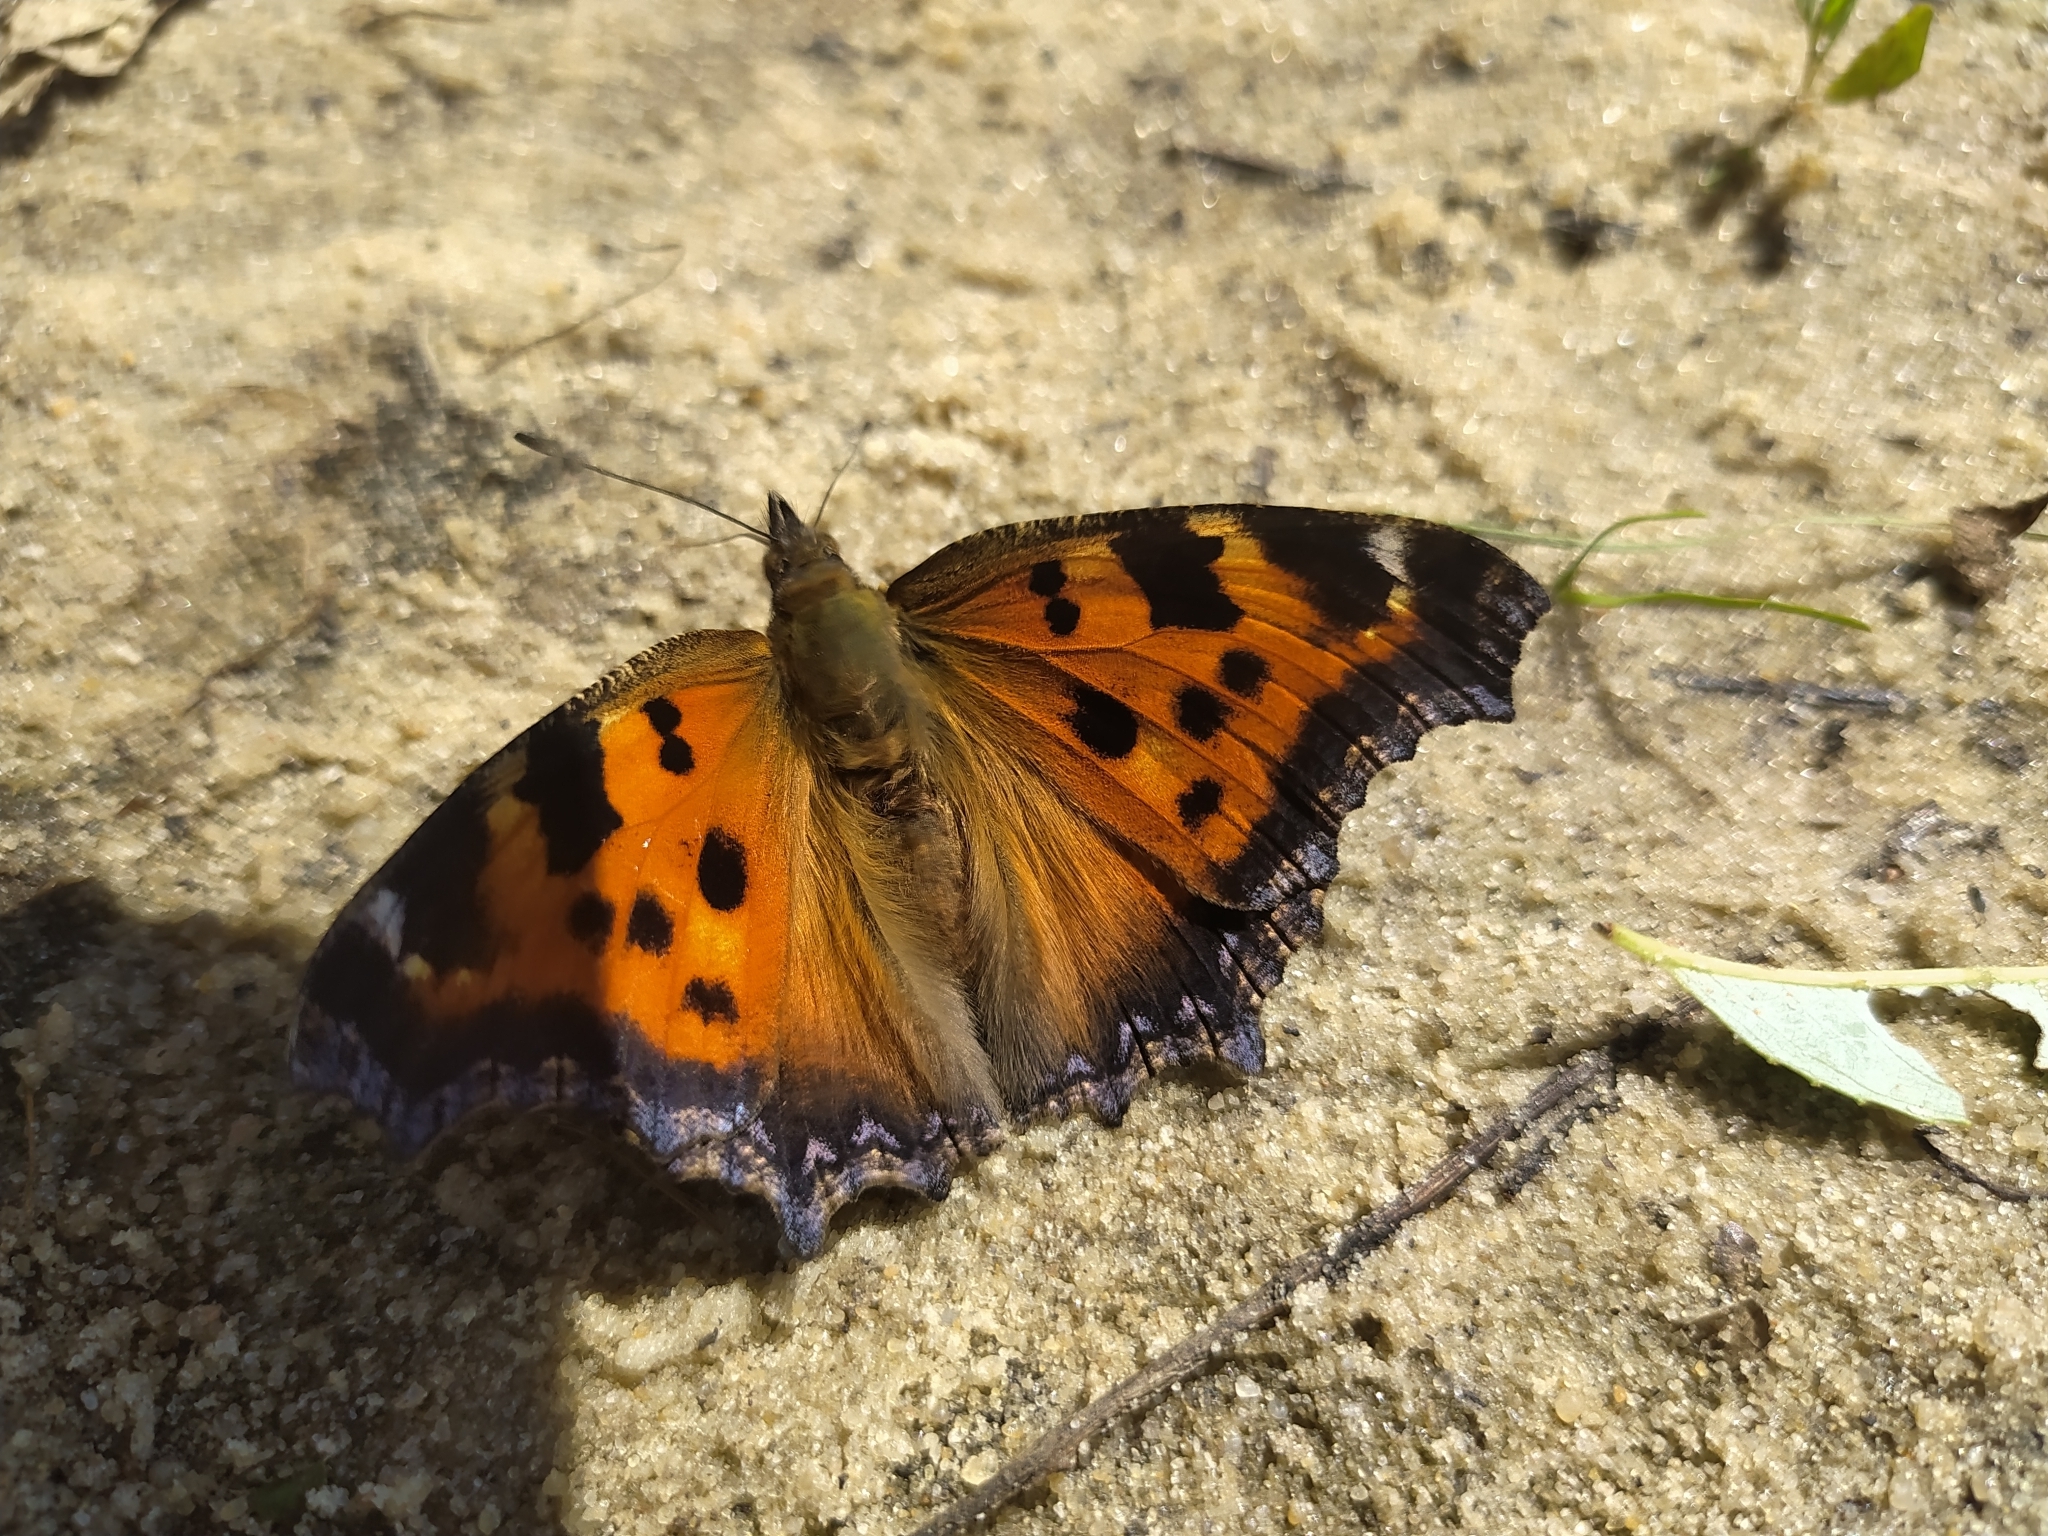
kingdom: Animalia
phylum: Arthropoda
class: Insecta
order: Lepidoptera
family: Nymphalidae
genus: Nymphalis
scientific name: Nymphalis xanthomelas
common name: Scarce tortoiseshell
